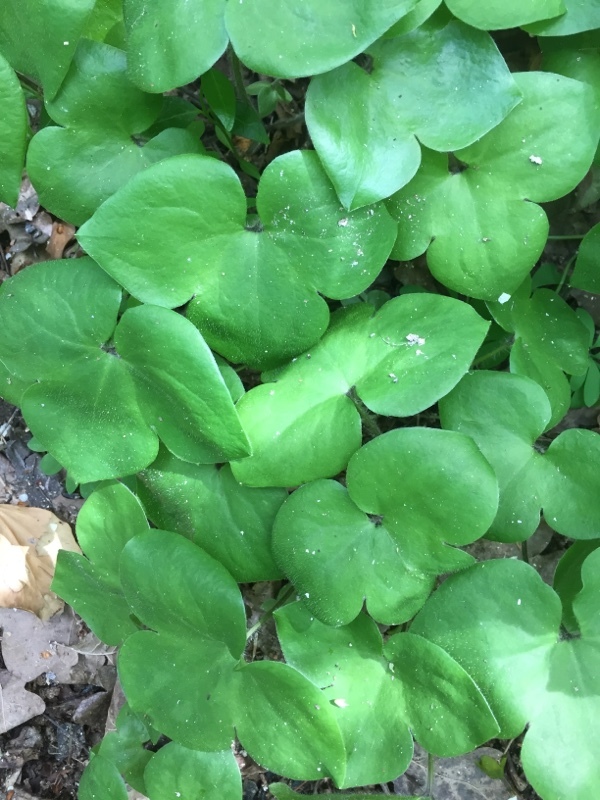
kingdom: Plantae
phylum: Tracheophyta
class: Magnoliopsida
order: Ranunculales
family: Ranunculaceae
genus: Hepatica
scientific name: Hepatica nobilis
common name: Liverleaf
